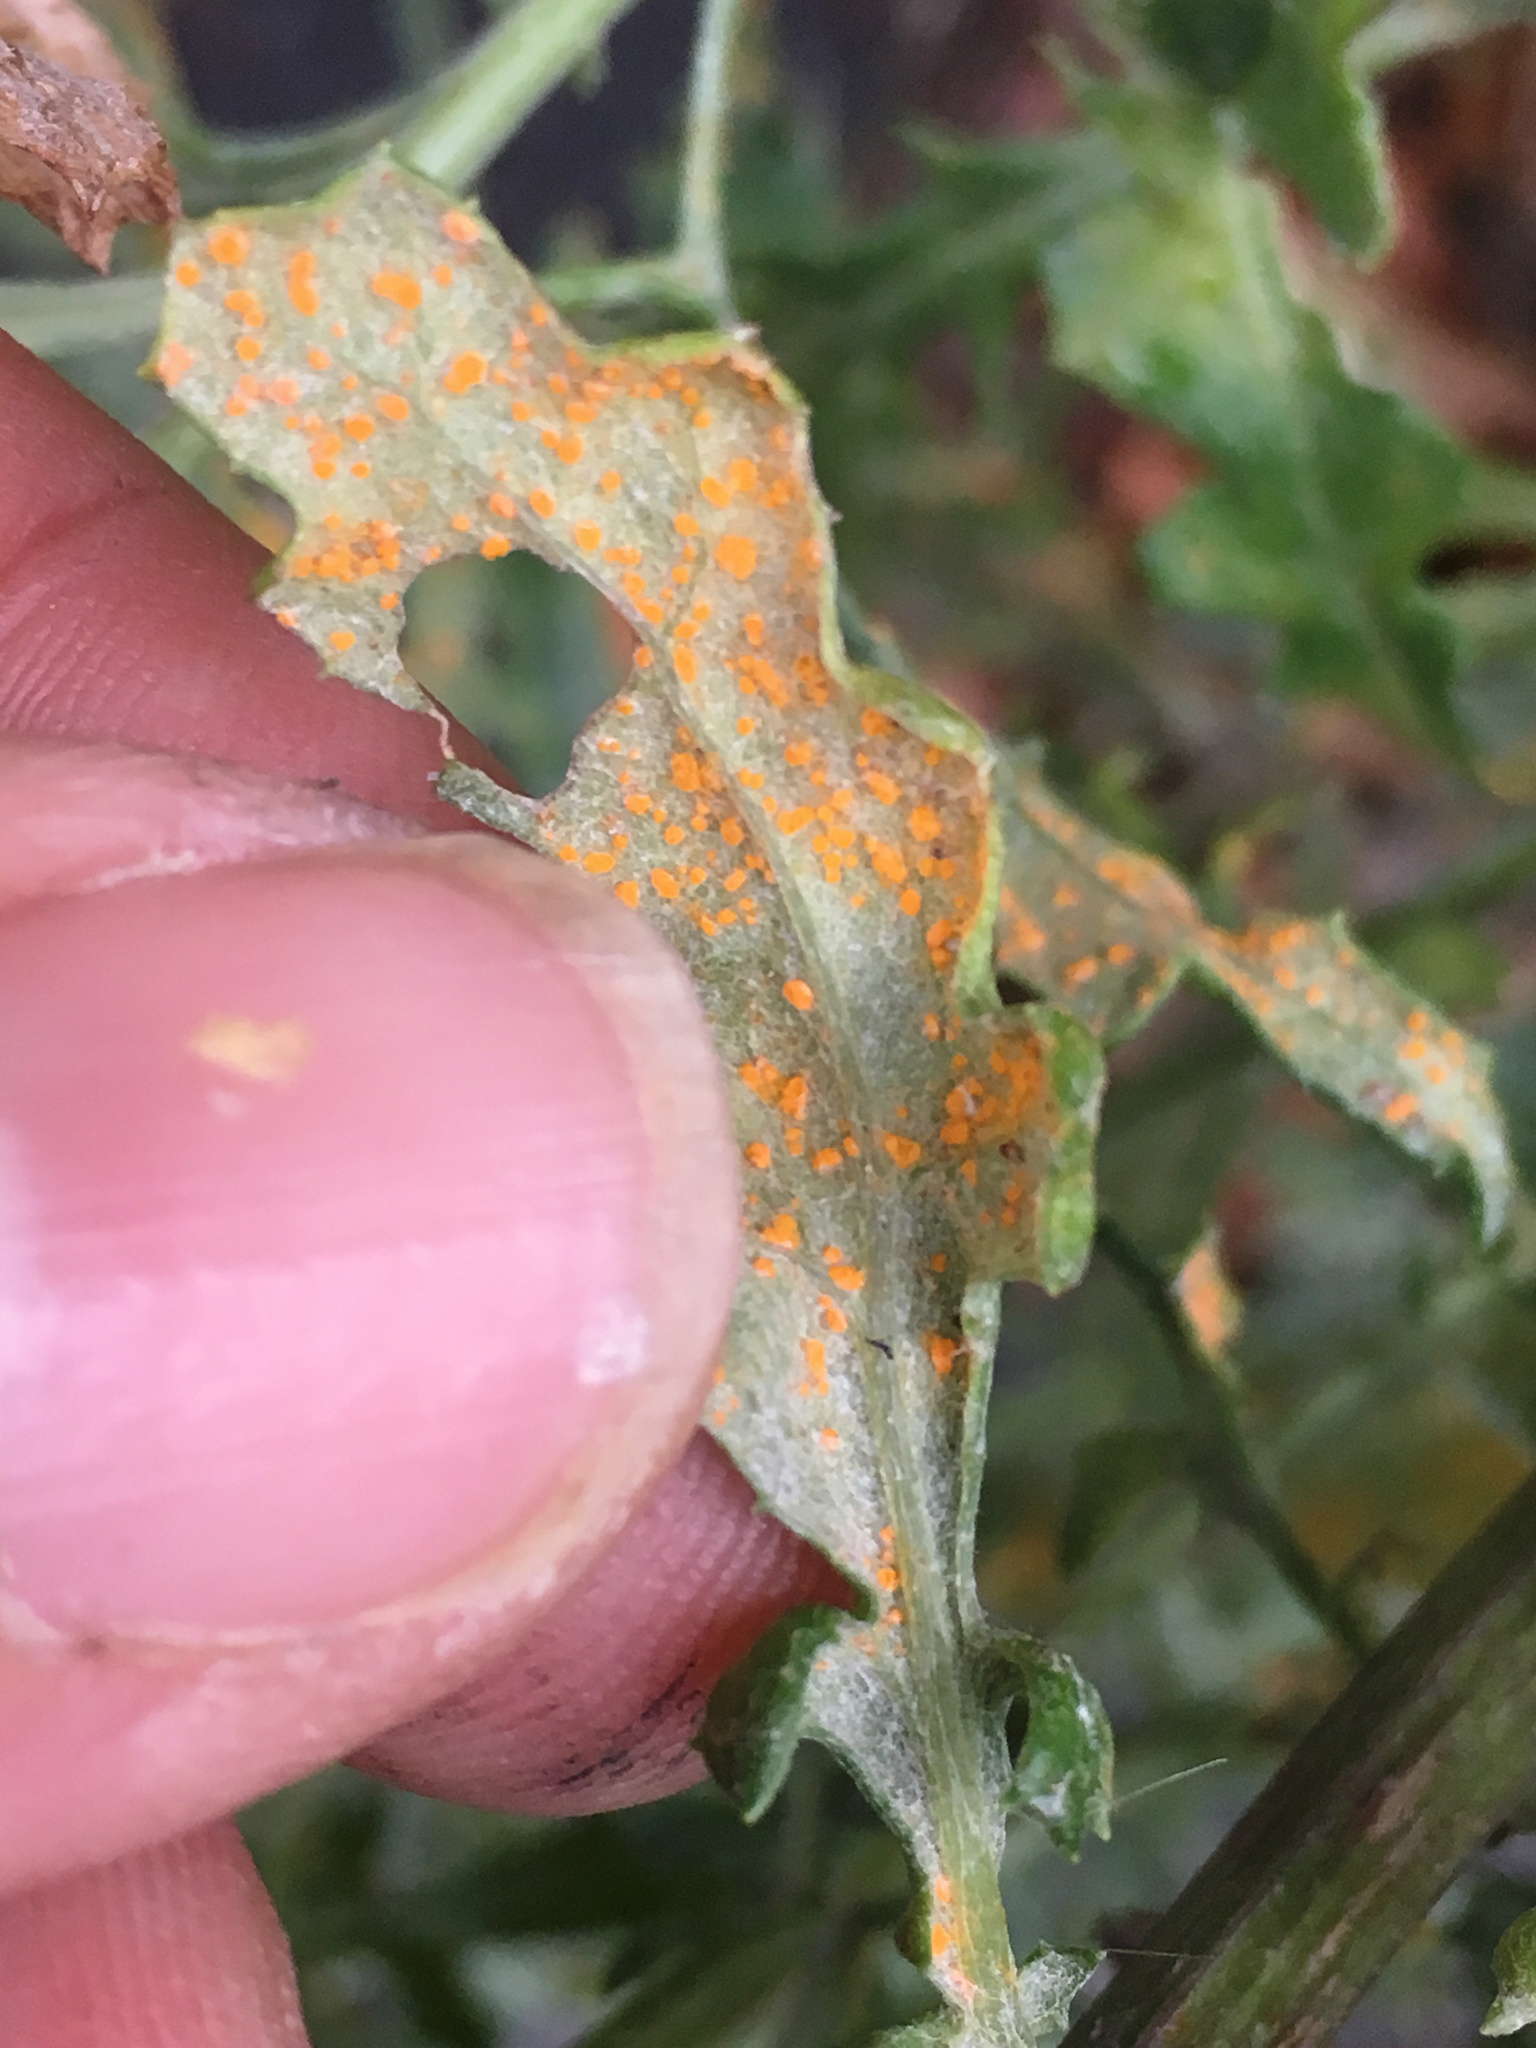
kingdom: Fungi
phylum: Basidiomycota
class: Pucciniomycetes
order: Pucciniales
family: Coleosporiaceae
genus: Coleosporium
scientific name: Coleosporium tussilaginis
